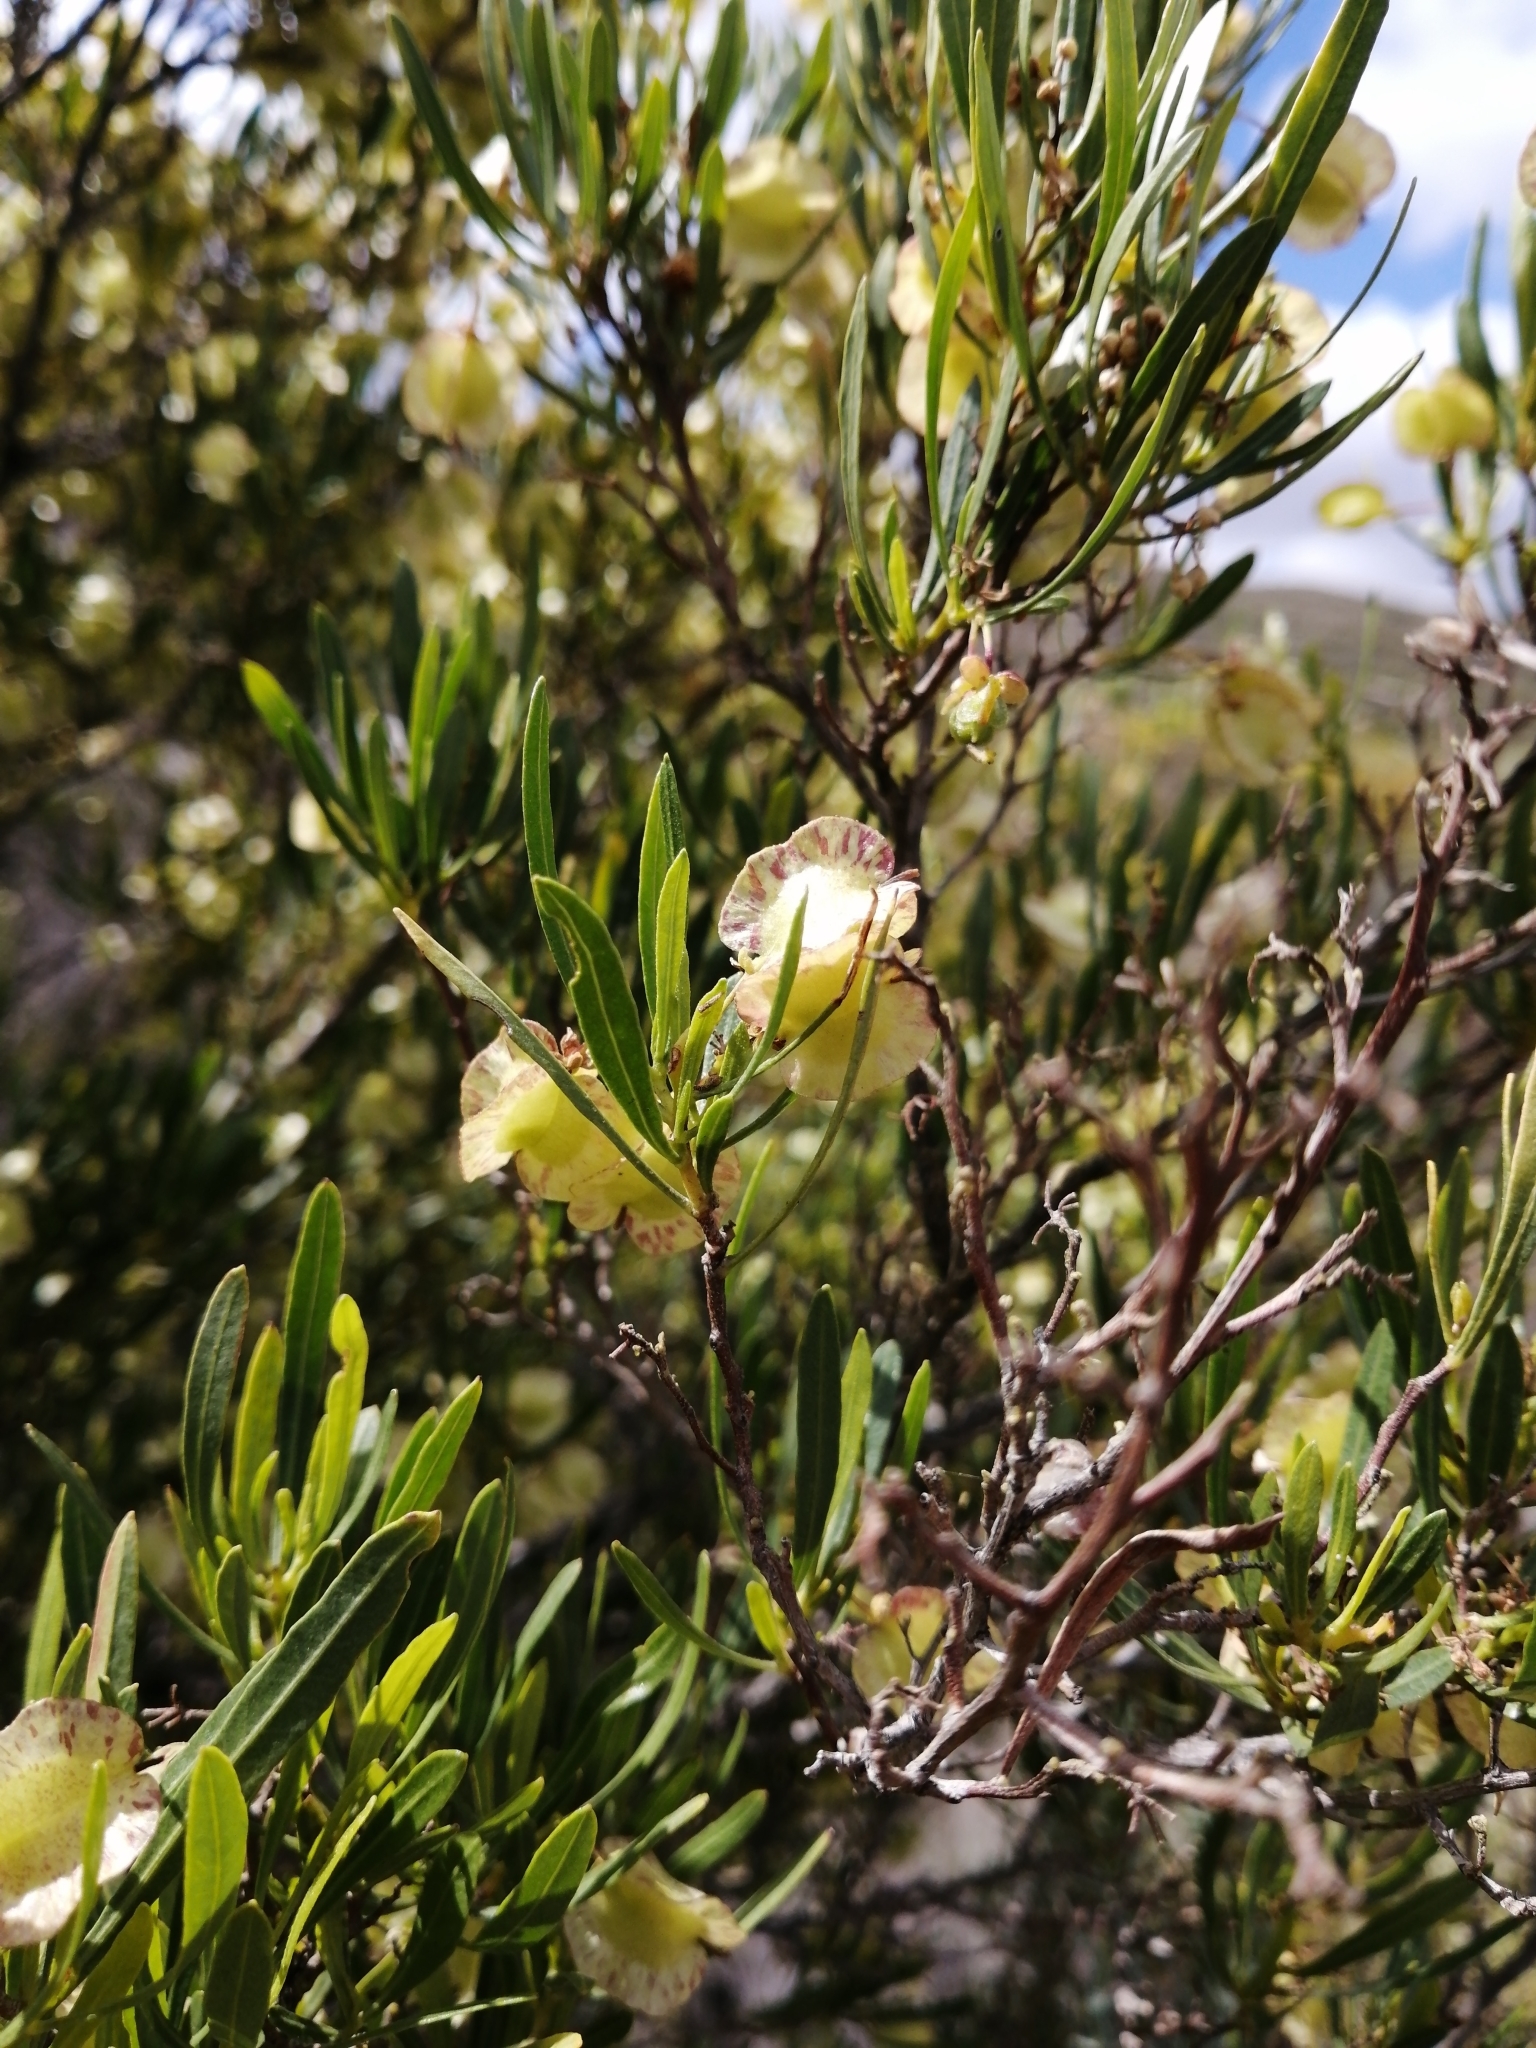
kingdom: Plantae
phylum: Tracheophyta
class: Magnoliopsida
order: Sapindales
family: Sapindaceae
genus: Dodonaea
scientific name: Dodonaea viscosa
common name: Hopbush
